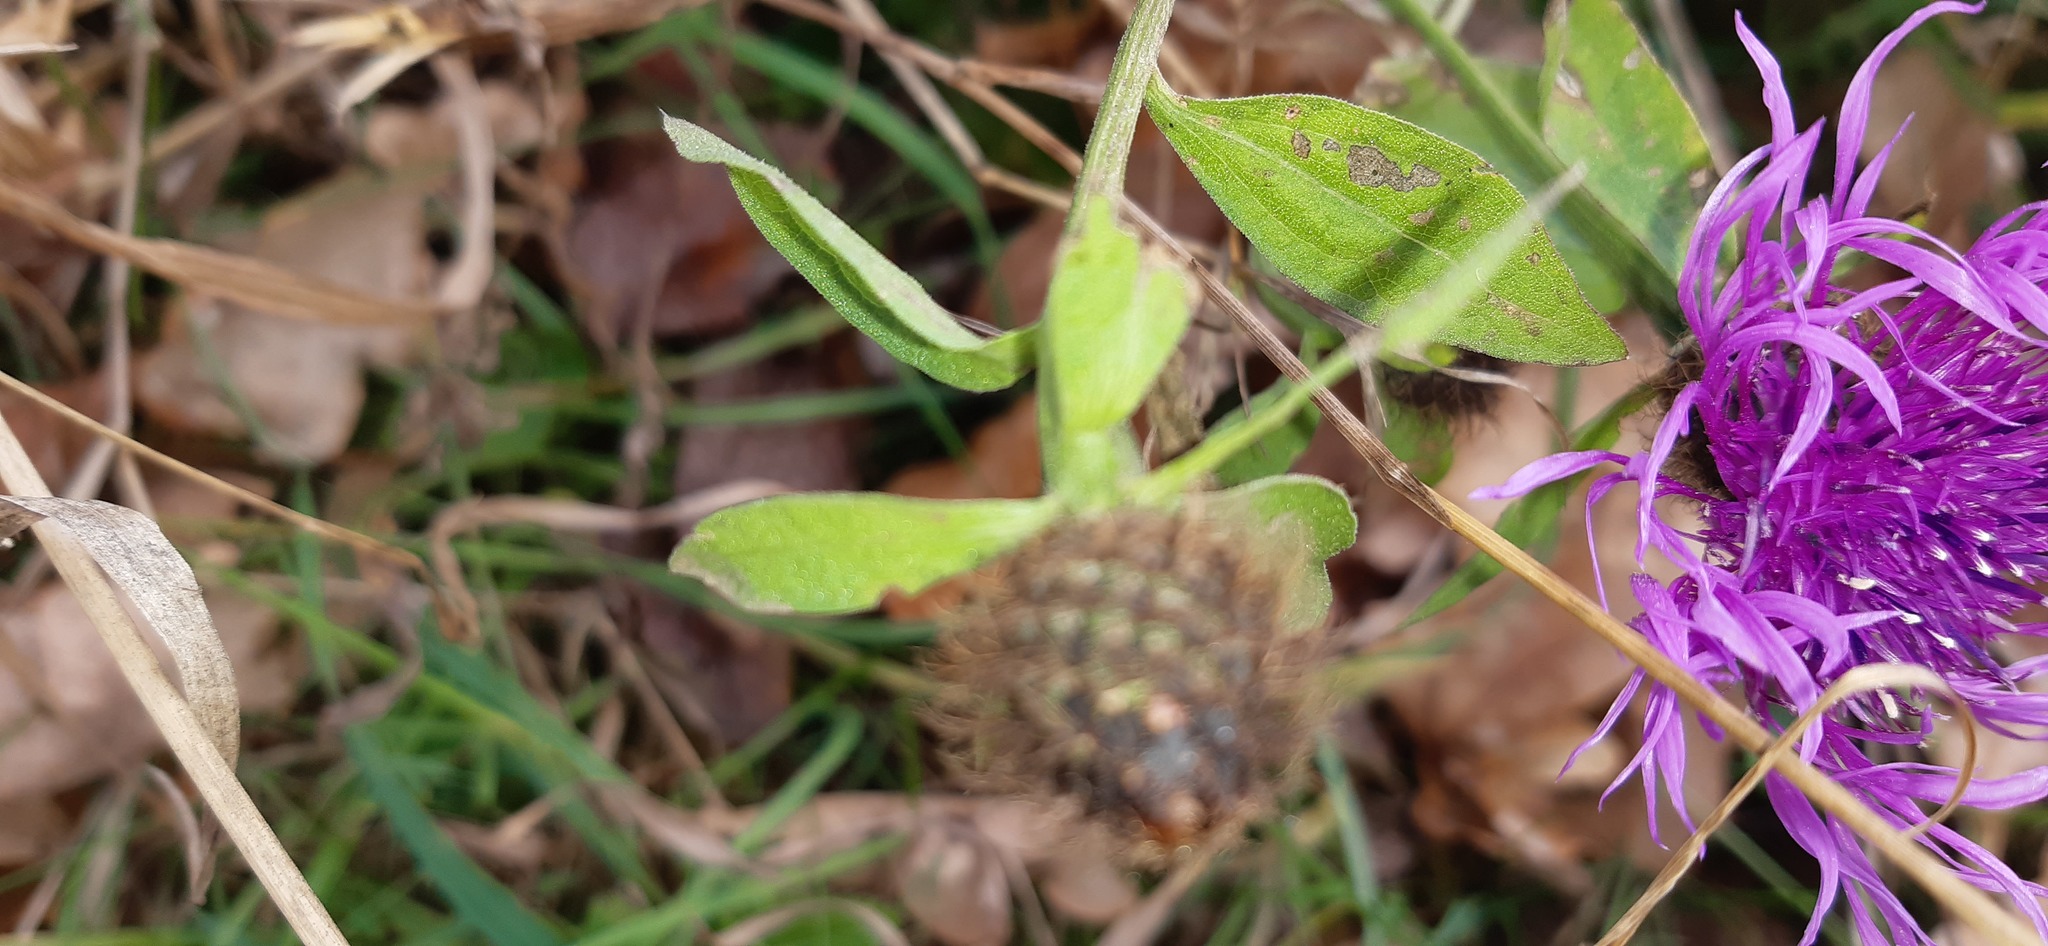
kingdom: Plantae
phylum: Tracheophyta
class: Magnoliopsida
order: Asterales
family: Asteraceae
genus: Centaurea
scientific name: Centaurea pseudophrygia
